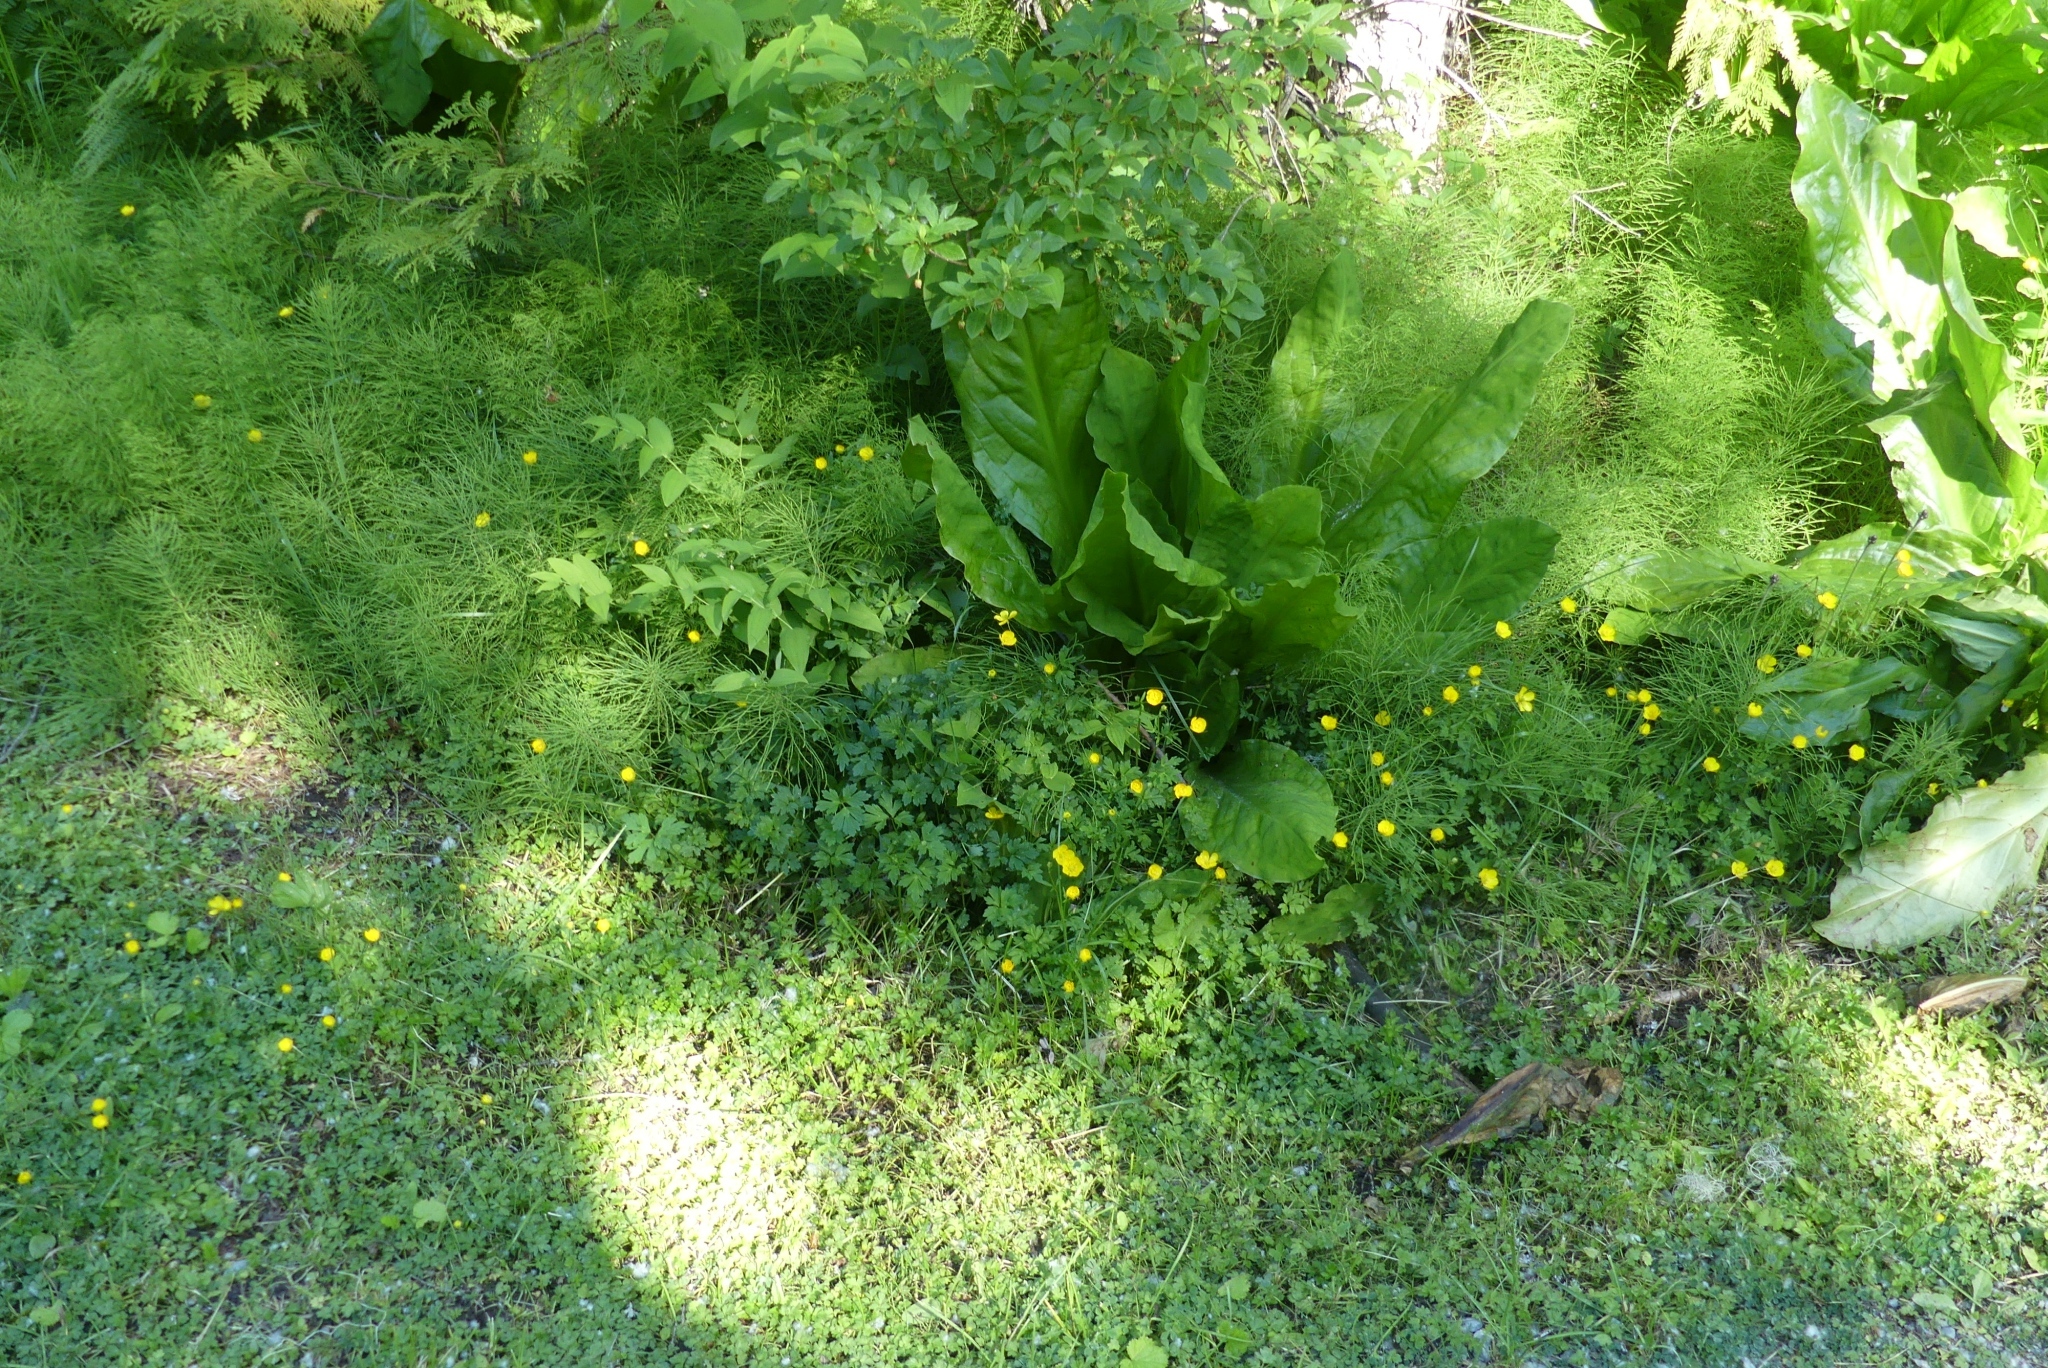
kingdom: Plantae
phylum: Tracheophyta
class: Magnoliopsida
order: Ranunculales
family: Ranunculaceae
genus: Ranunculus
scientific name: Ranunculus repens
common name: Creeping buttercup
